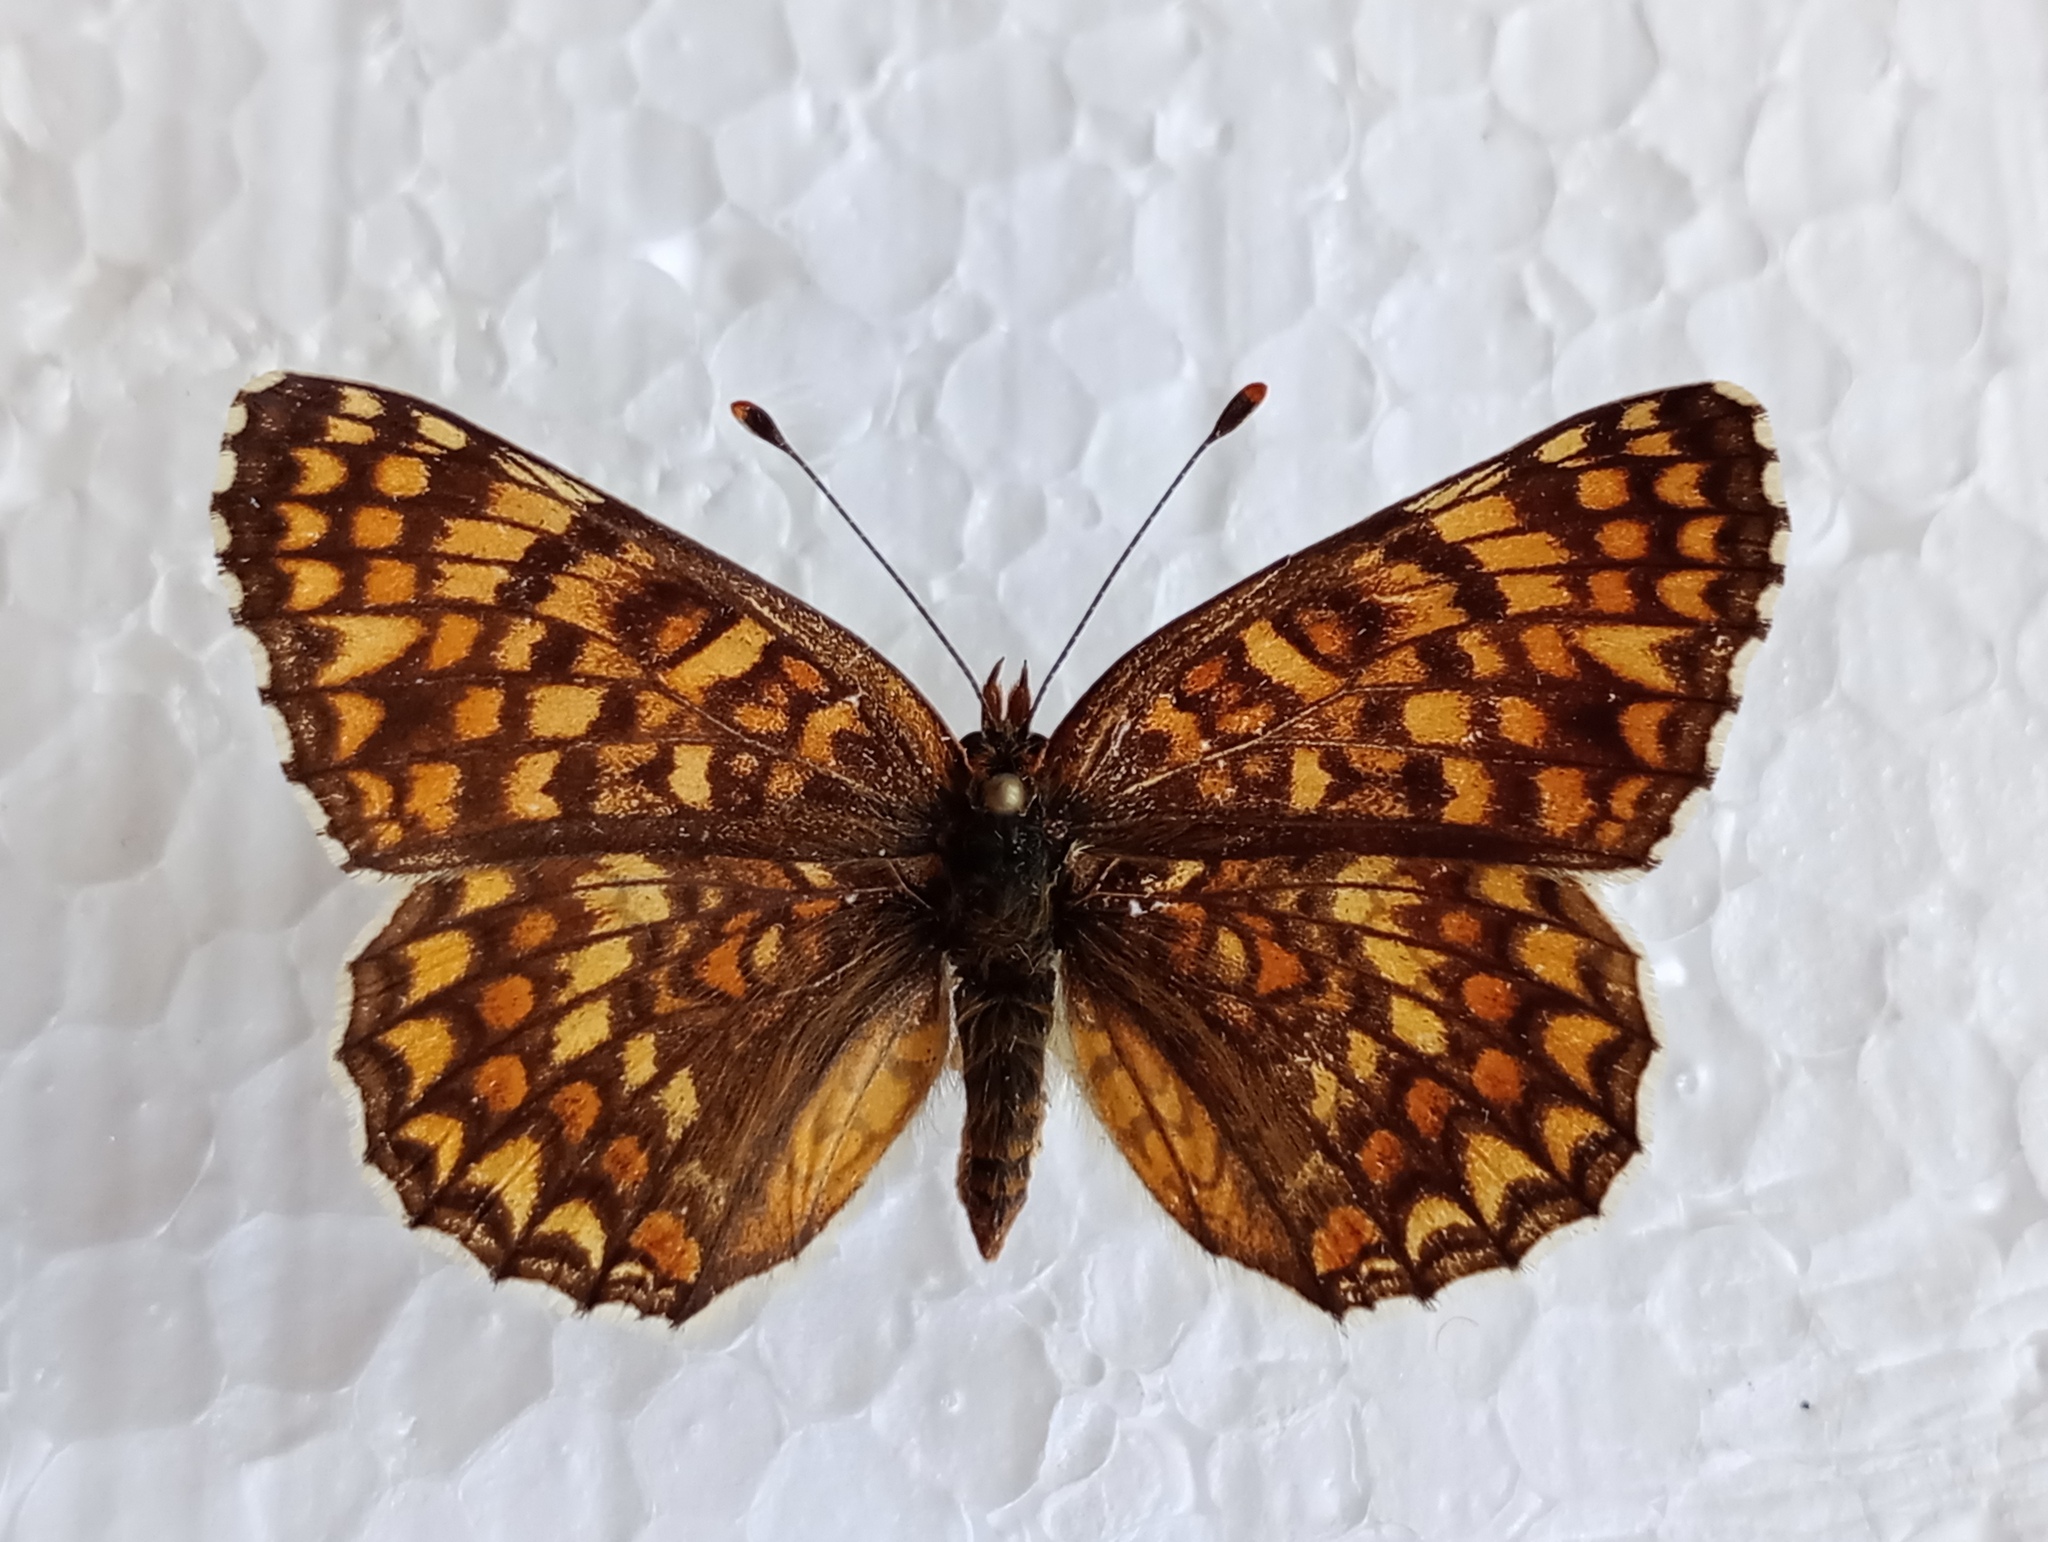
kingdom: Animalia
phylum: Arthropoda
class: Insecta
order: Lepidoptera
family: Nymphalidae
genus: Melitaea
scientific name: Melitaea phoebe
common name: Knapweed fritillary
